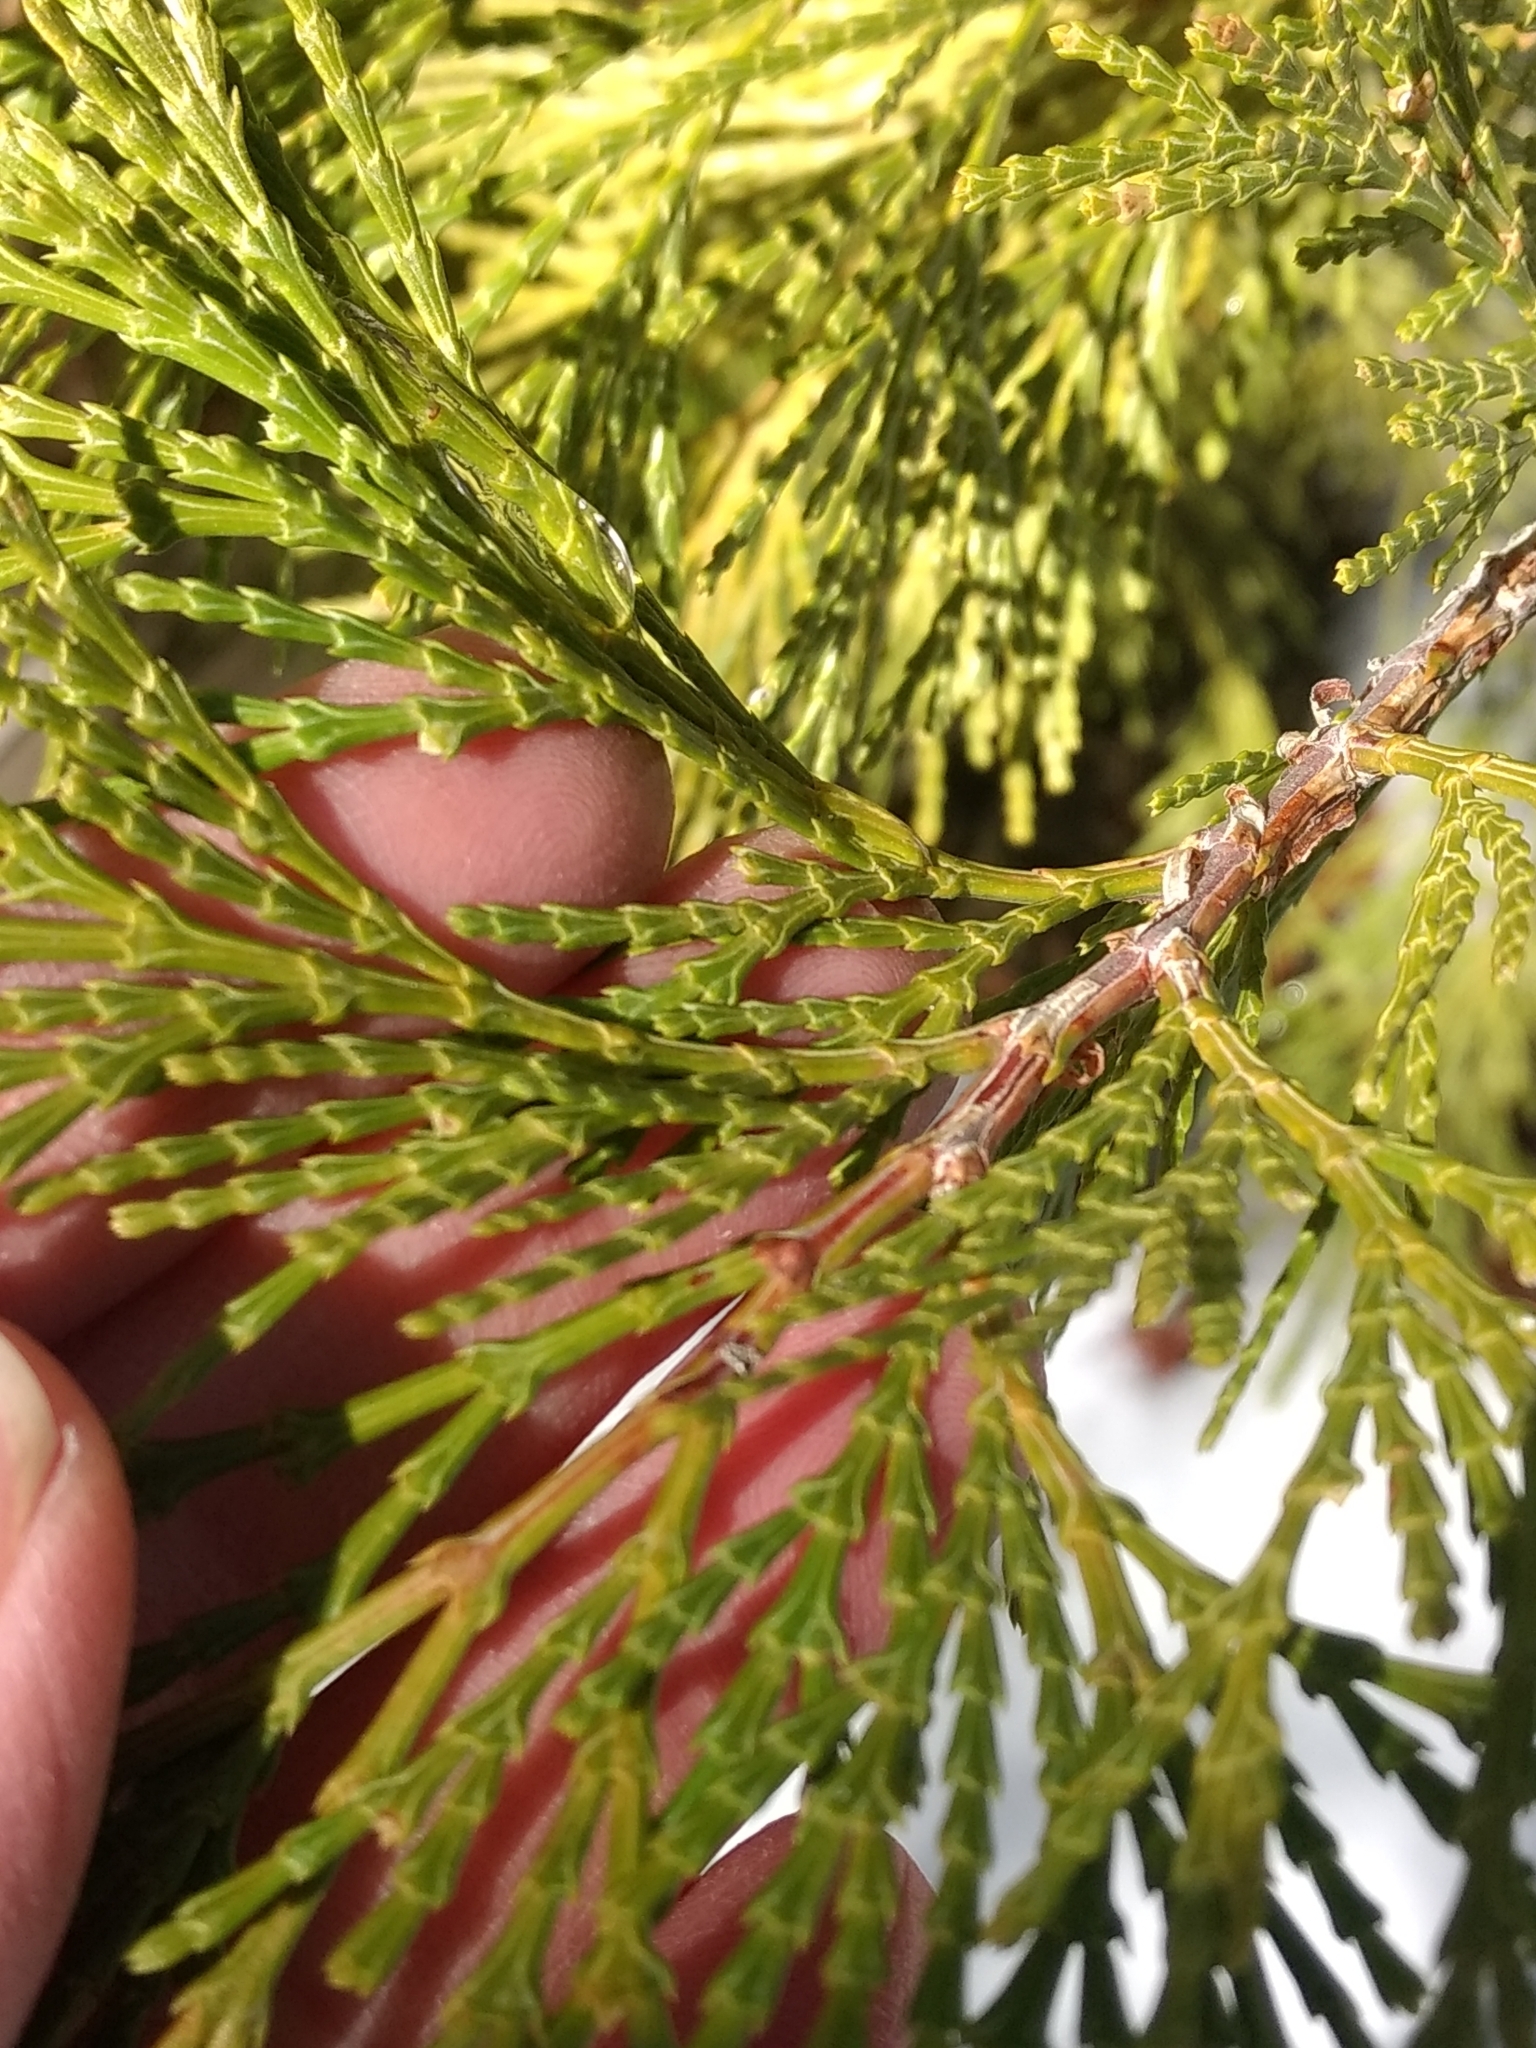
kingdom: Plantae
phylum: Tracheophyta
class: Pinopsida
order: Pinales
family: Cupressaceae
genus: Calocedrus
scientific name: Calocedrus decurrens
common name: Californian incense-cedar
